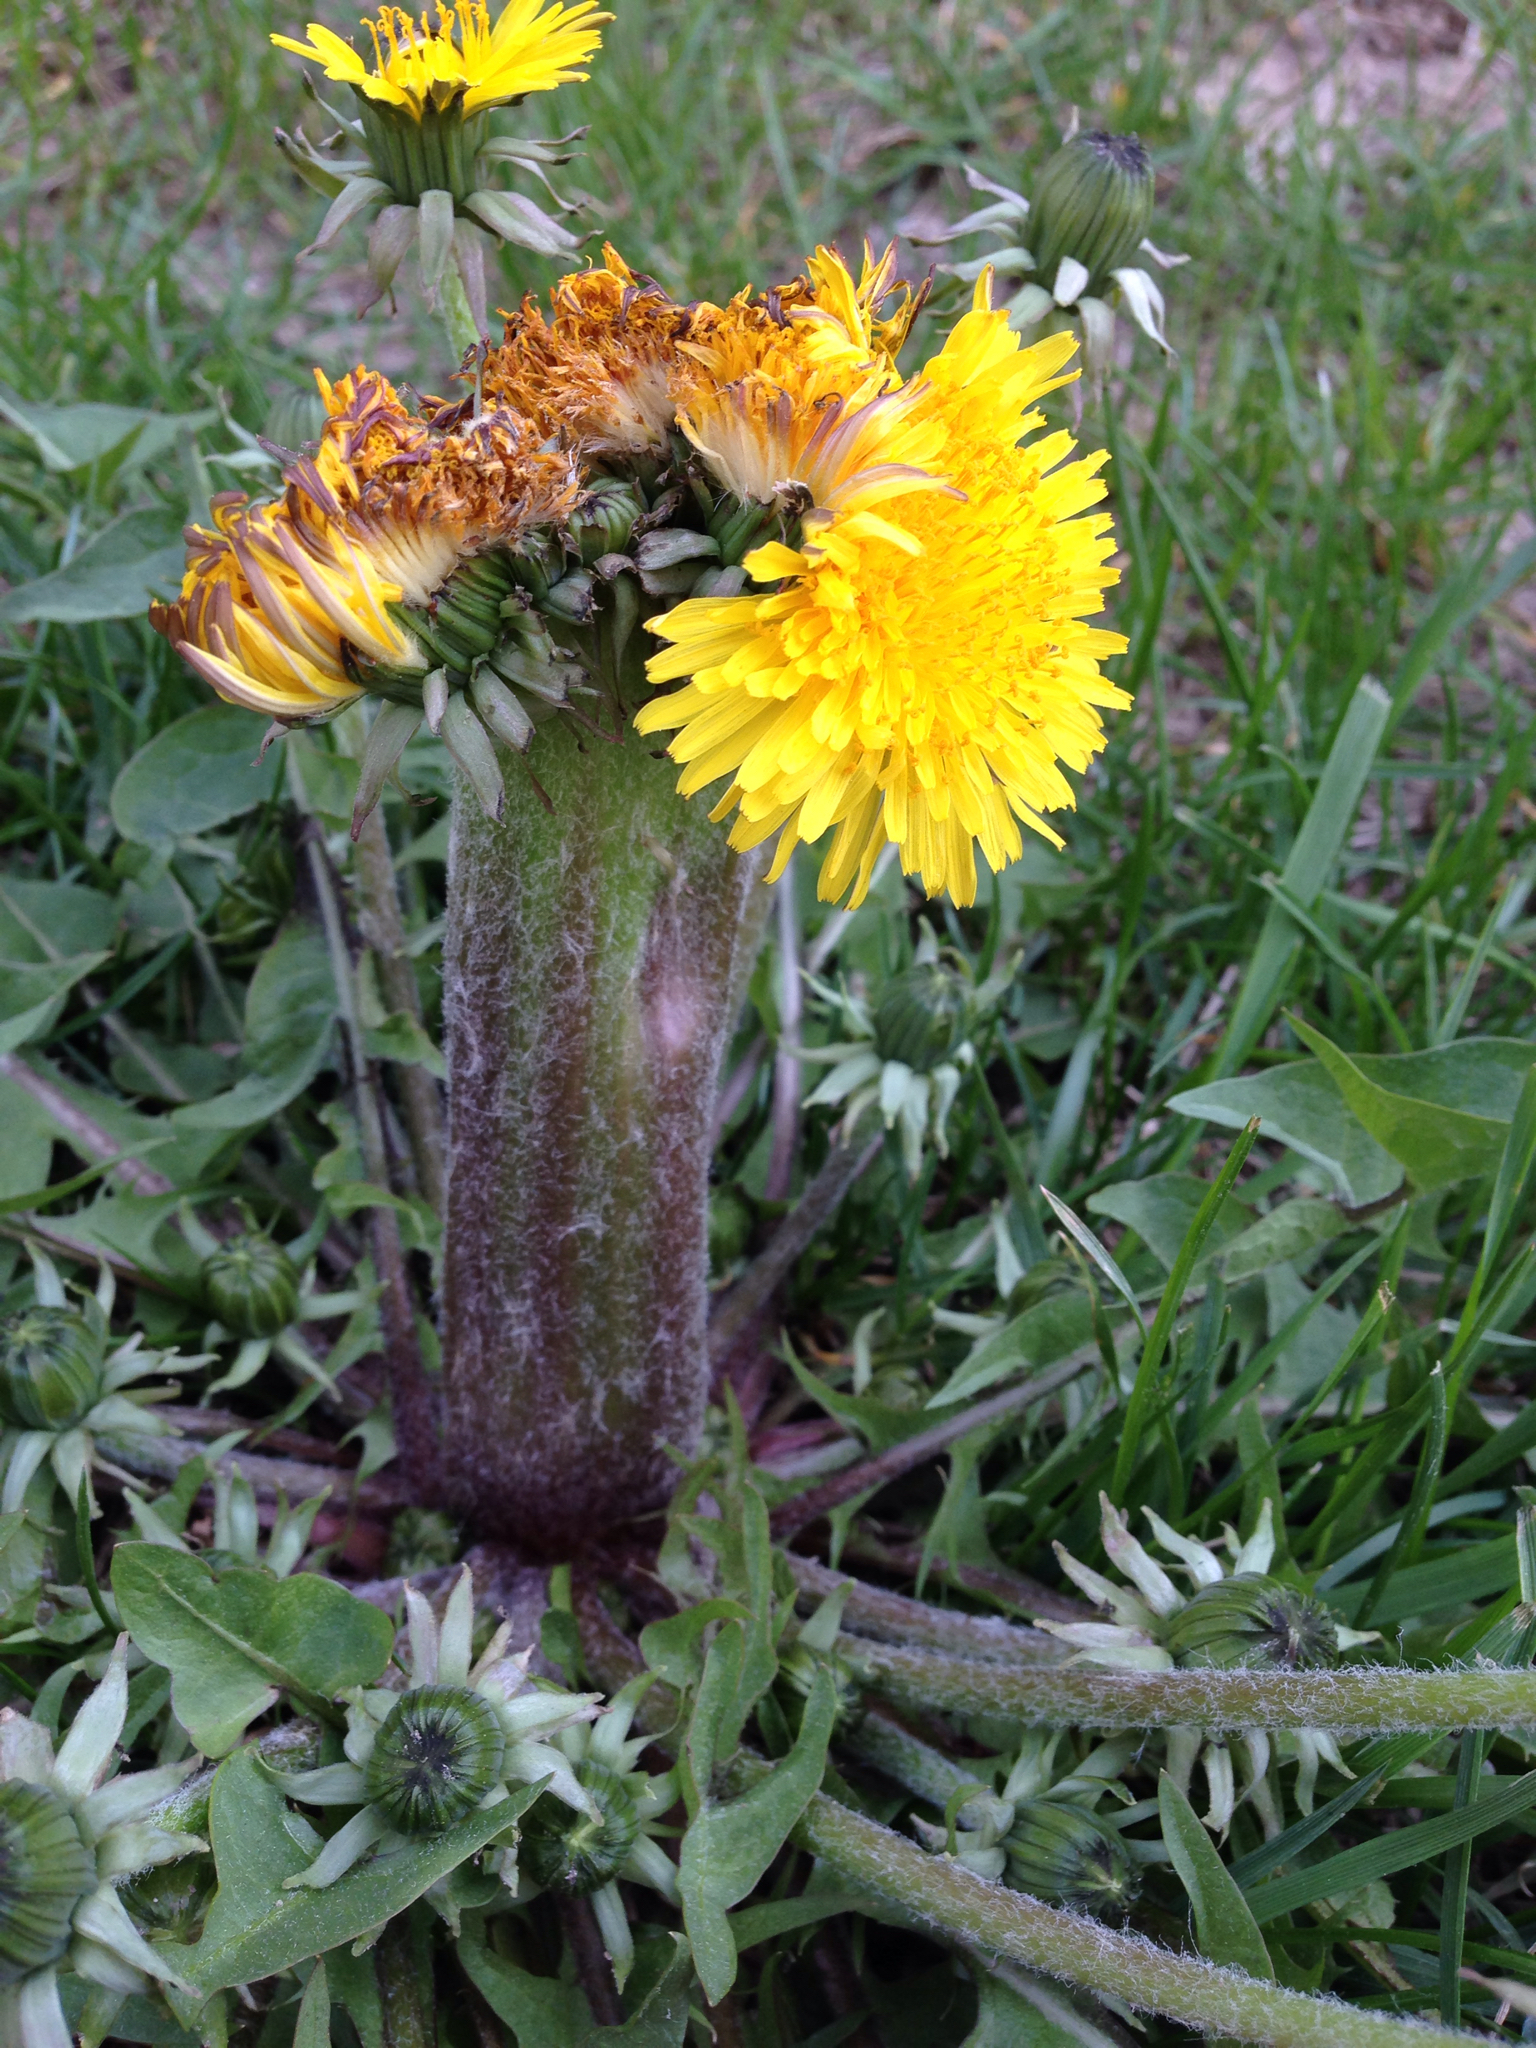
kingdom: Plantae
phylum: Tracheophyta
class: Magnoliopsida
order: Asterales
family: Asteraceae
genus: Taraxacum
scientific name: Taraxacum officinale
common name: Common dandelion
